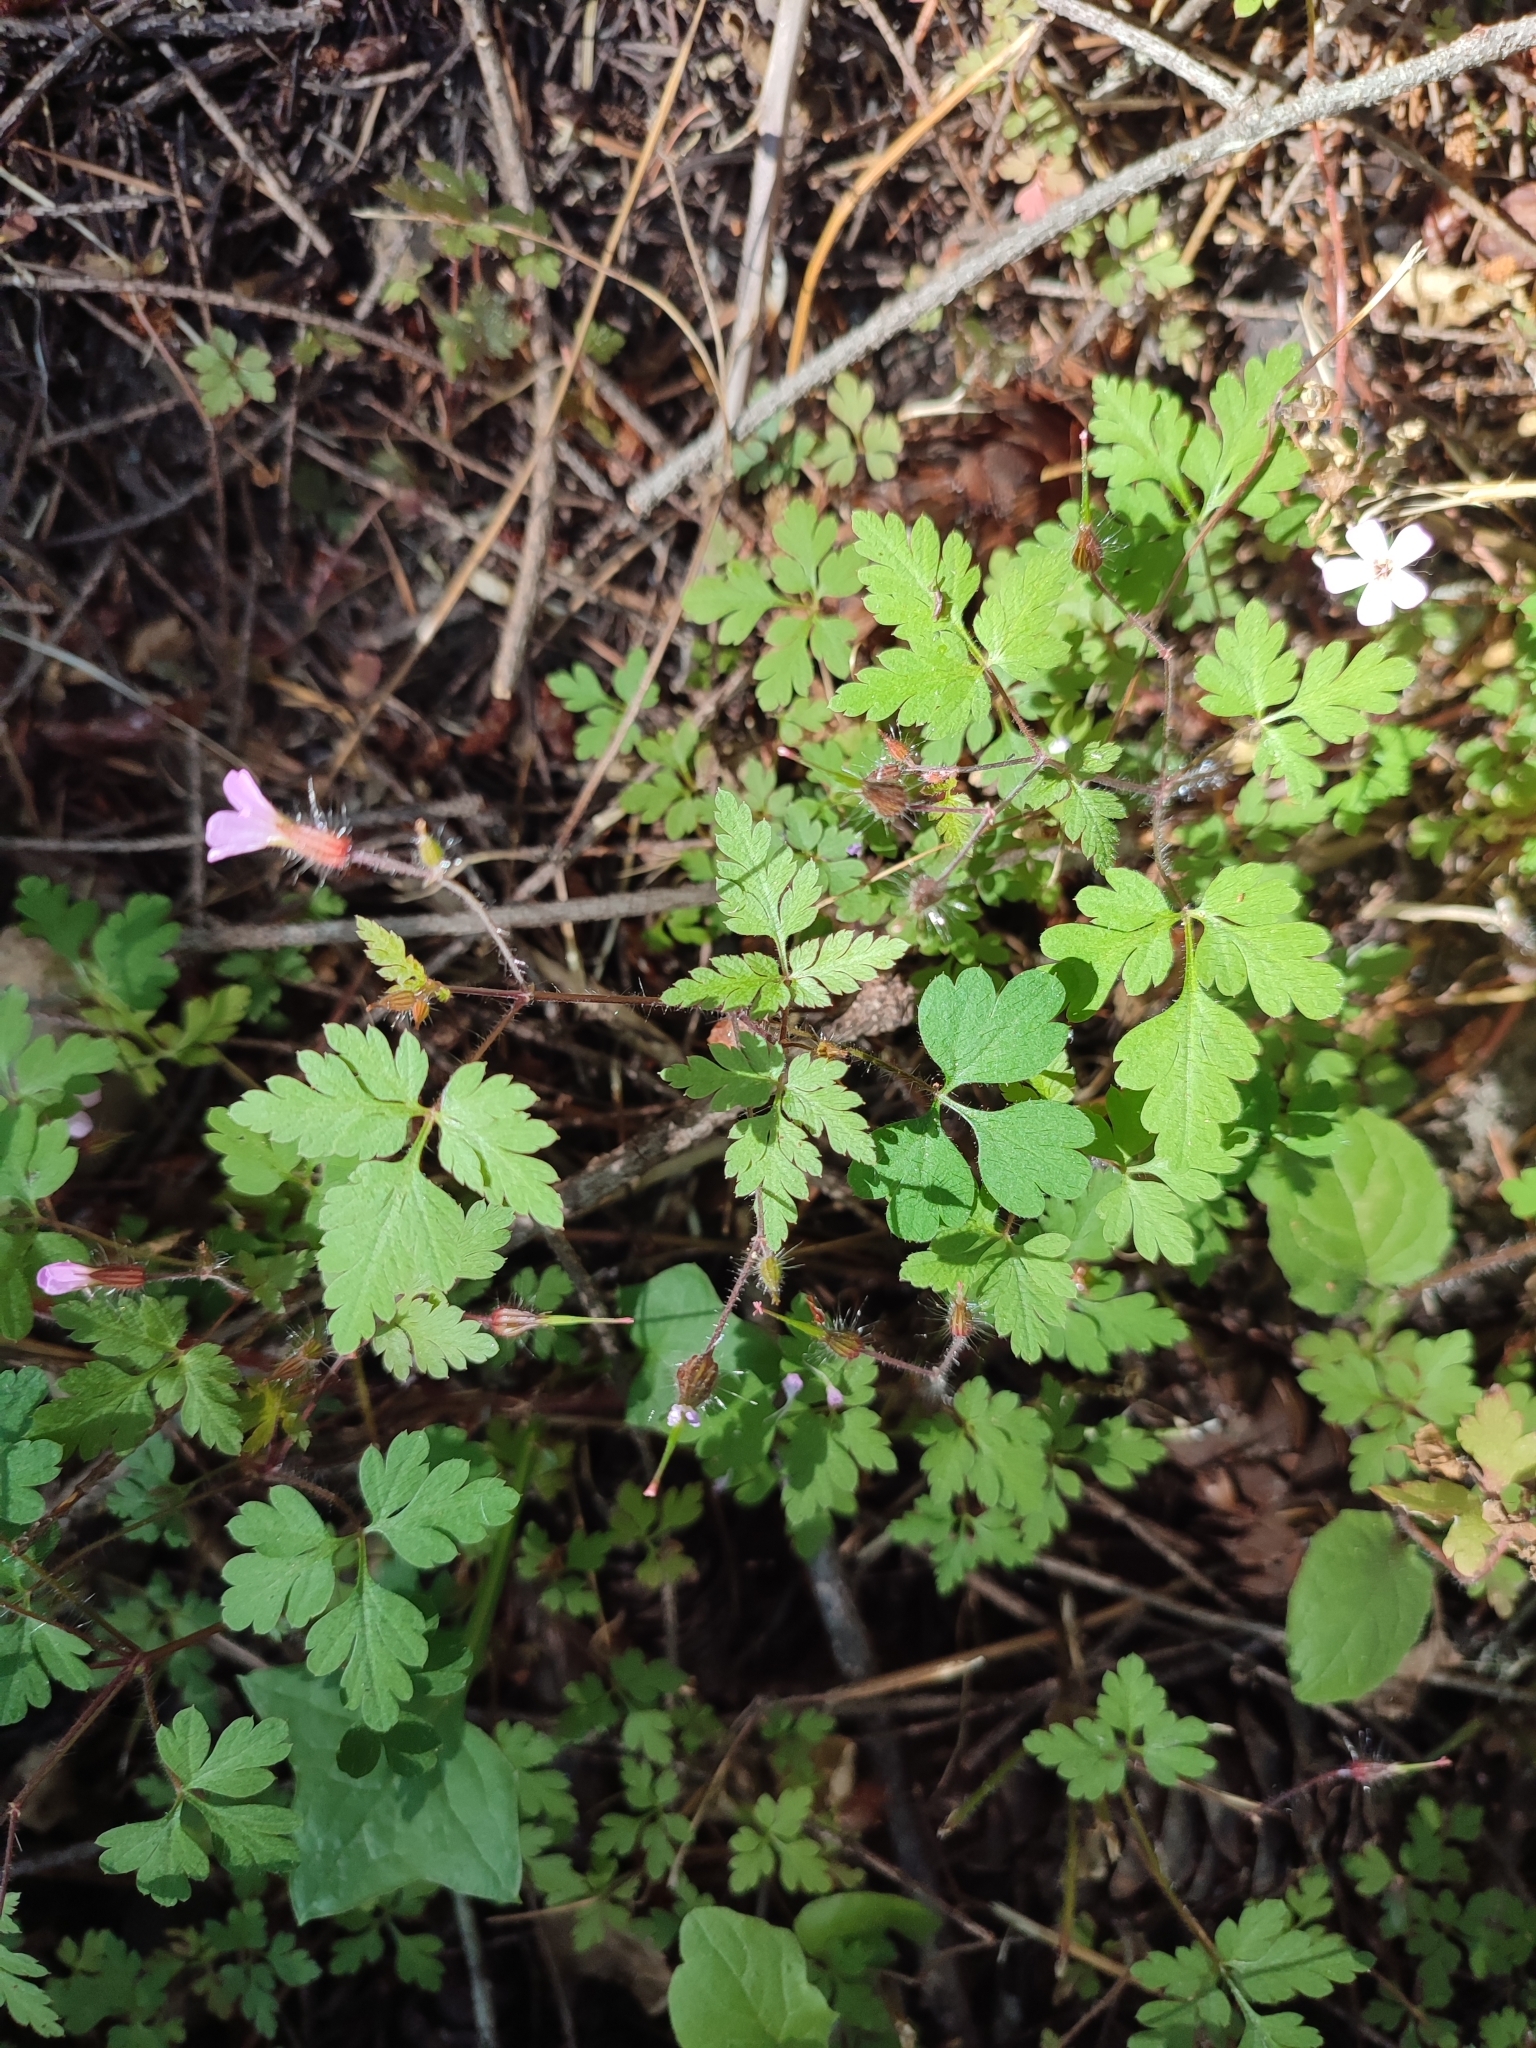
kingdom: Plantae
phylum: Tracheophyta
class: Magnoliopsida
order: Geraniales
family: Geraniaceae
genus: Geranium
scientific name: Geranium robertianum
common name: Herb-robert
